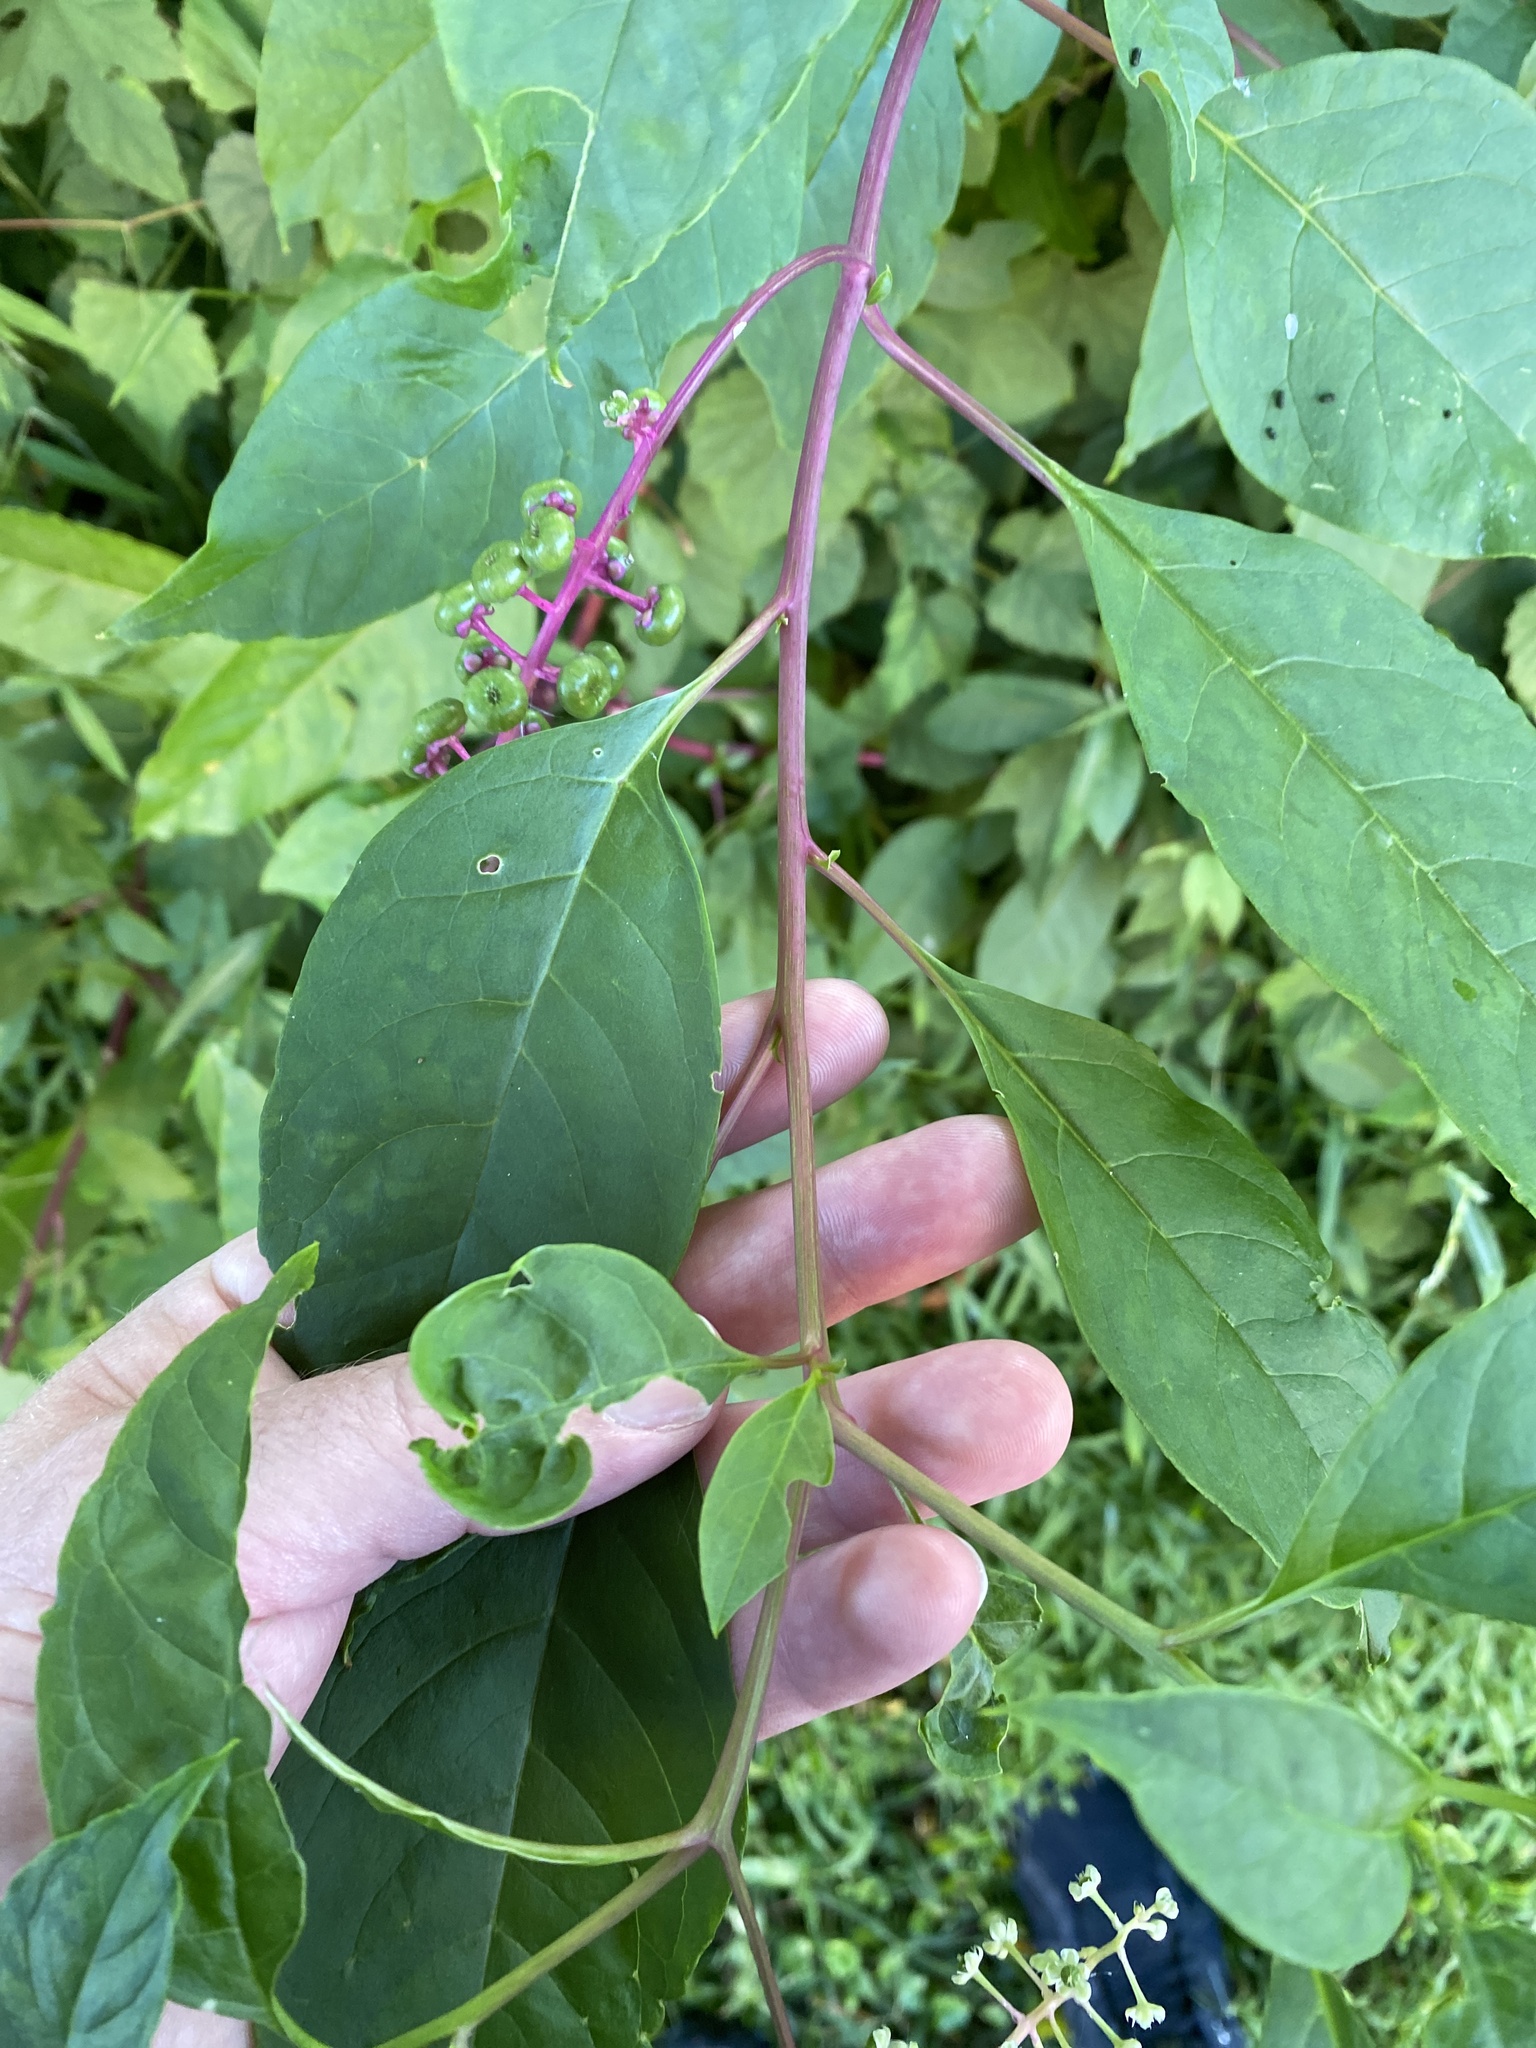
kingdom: Plantae
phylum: Tracheophyta
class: Magnoliopsida
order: Caryophyllales
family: Phytolaccaceae
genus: Phytolacca
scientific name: Phytolacca americana
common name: American pokeweed
